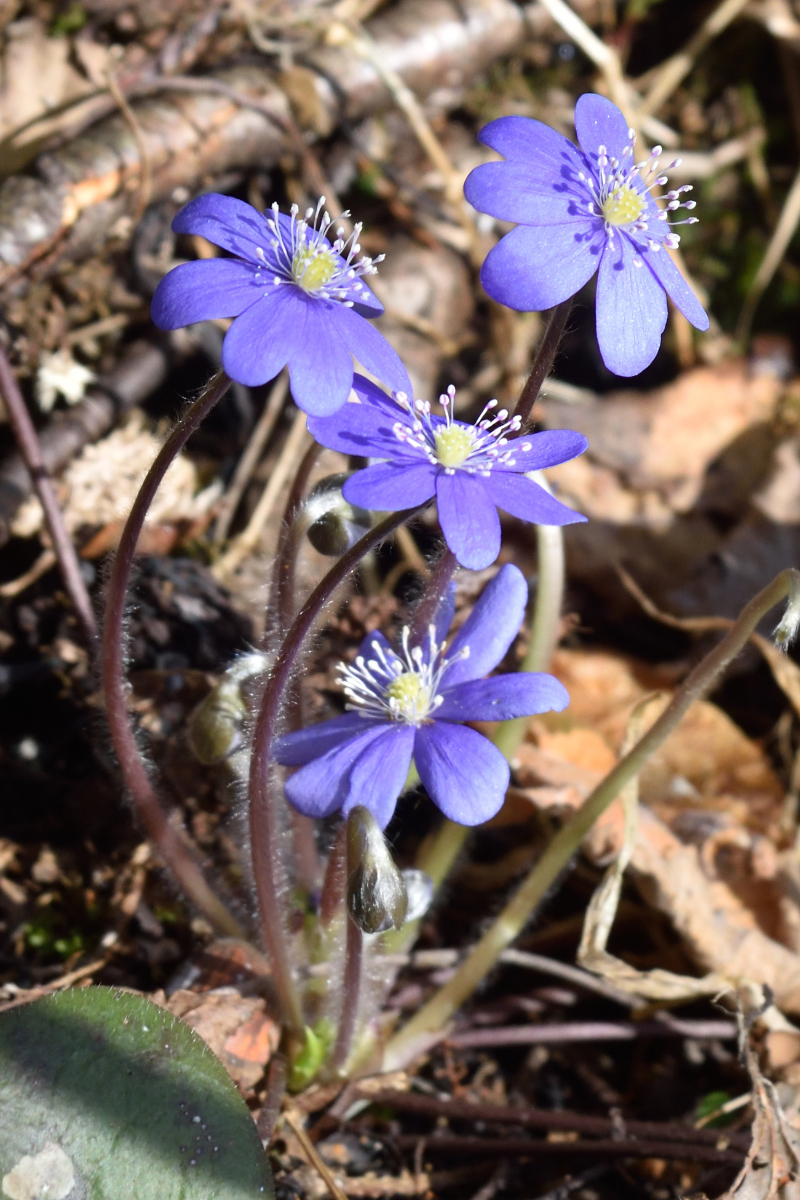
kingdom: Plantae
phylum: Tracheophyta
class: Magnoliopsida
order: Ranunculales
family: Ranunculaceae
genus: Hepatica
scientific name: Hepatica nobilis
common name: Liverleaf
